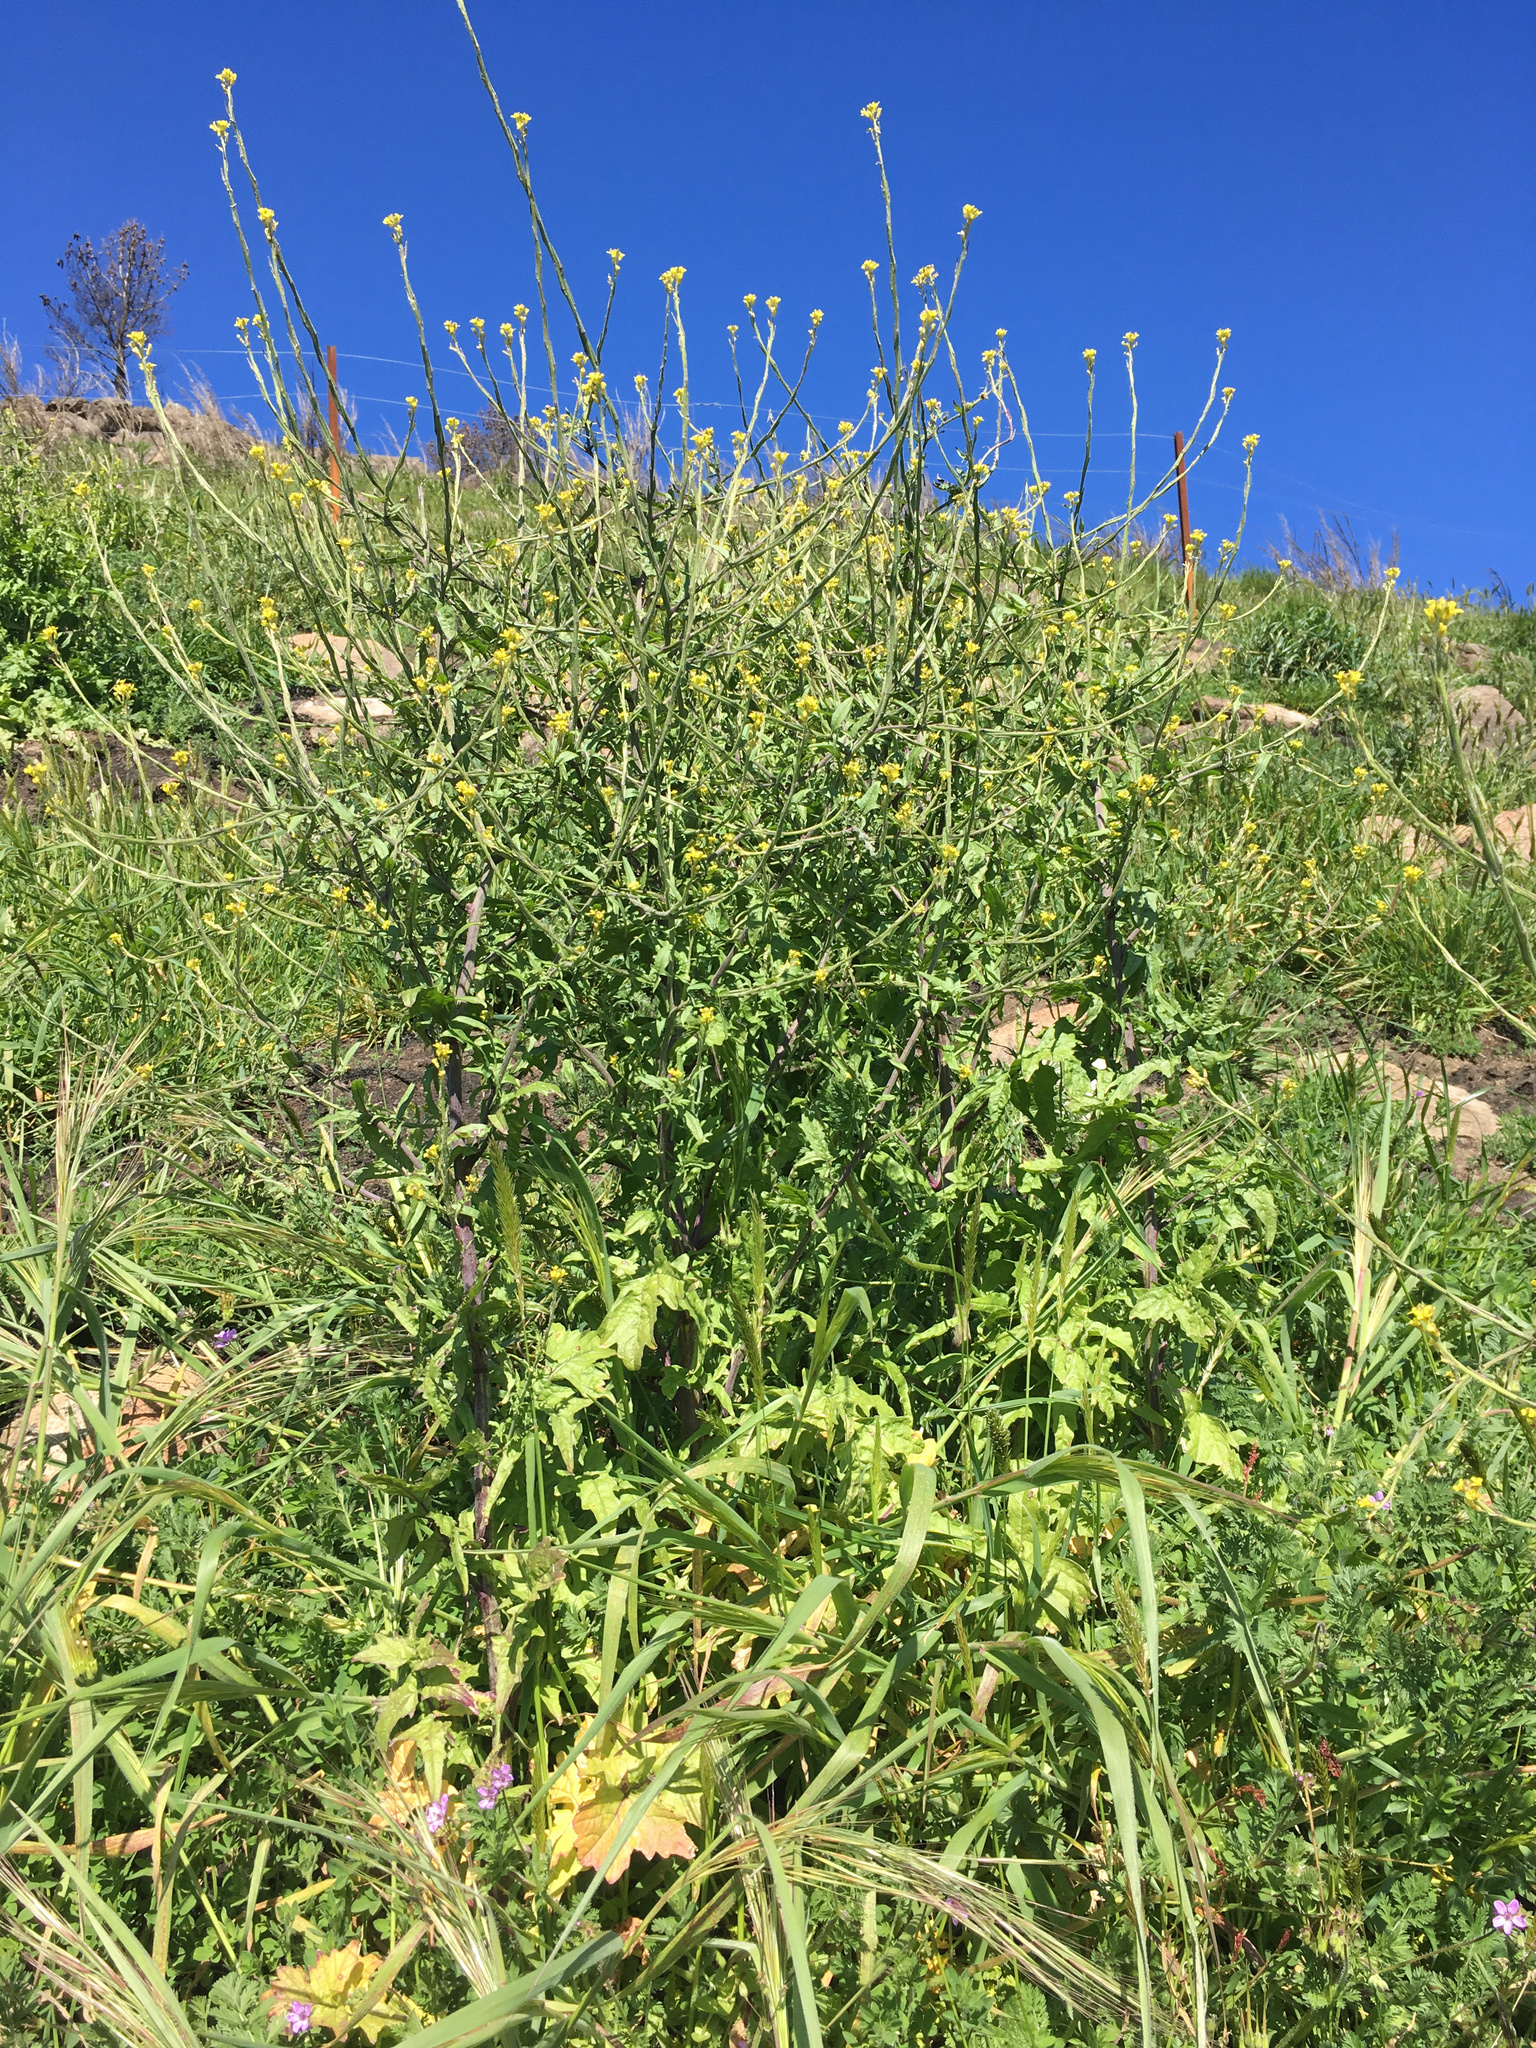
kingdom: Plantae
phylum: Tracheophyta
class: Magnoliopsida
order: Brassicales
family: Brassicaceae
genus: Sisymbrium
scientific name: Sisymbrium officinale
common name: Hedge mustard
